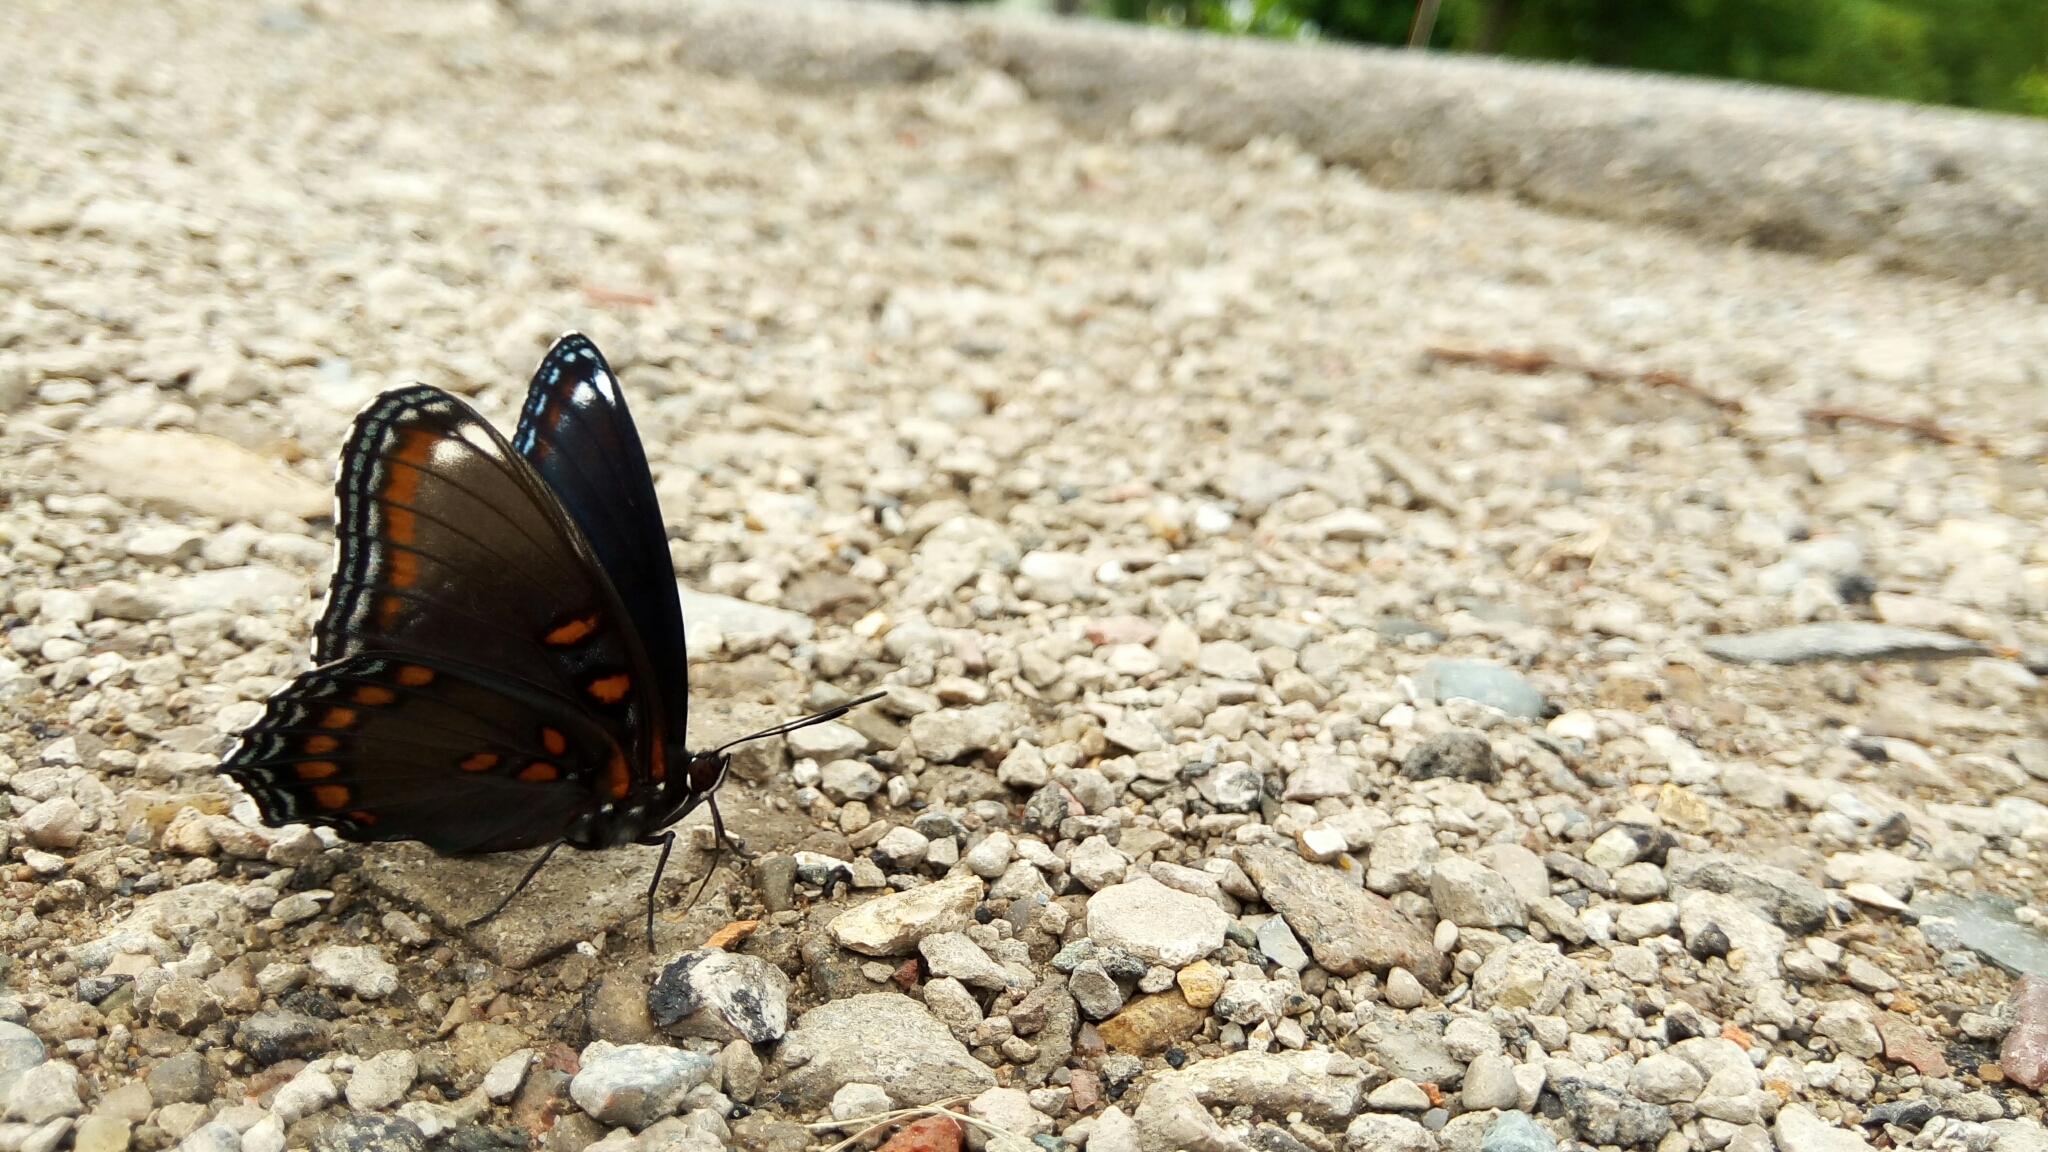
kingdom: Animalia
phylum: Arthropoda
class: Insecta
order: Lepidoptera
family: Nymphalidae
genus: Limenitis
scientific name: Limenitis arthemis
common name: Red-spotted admiral
